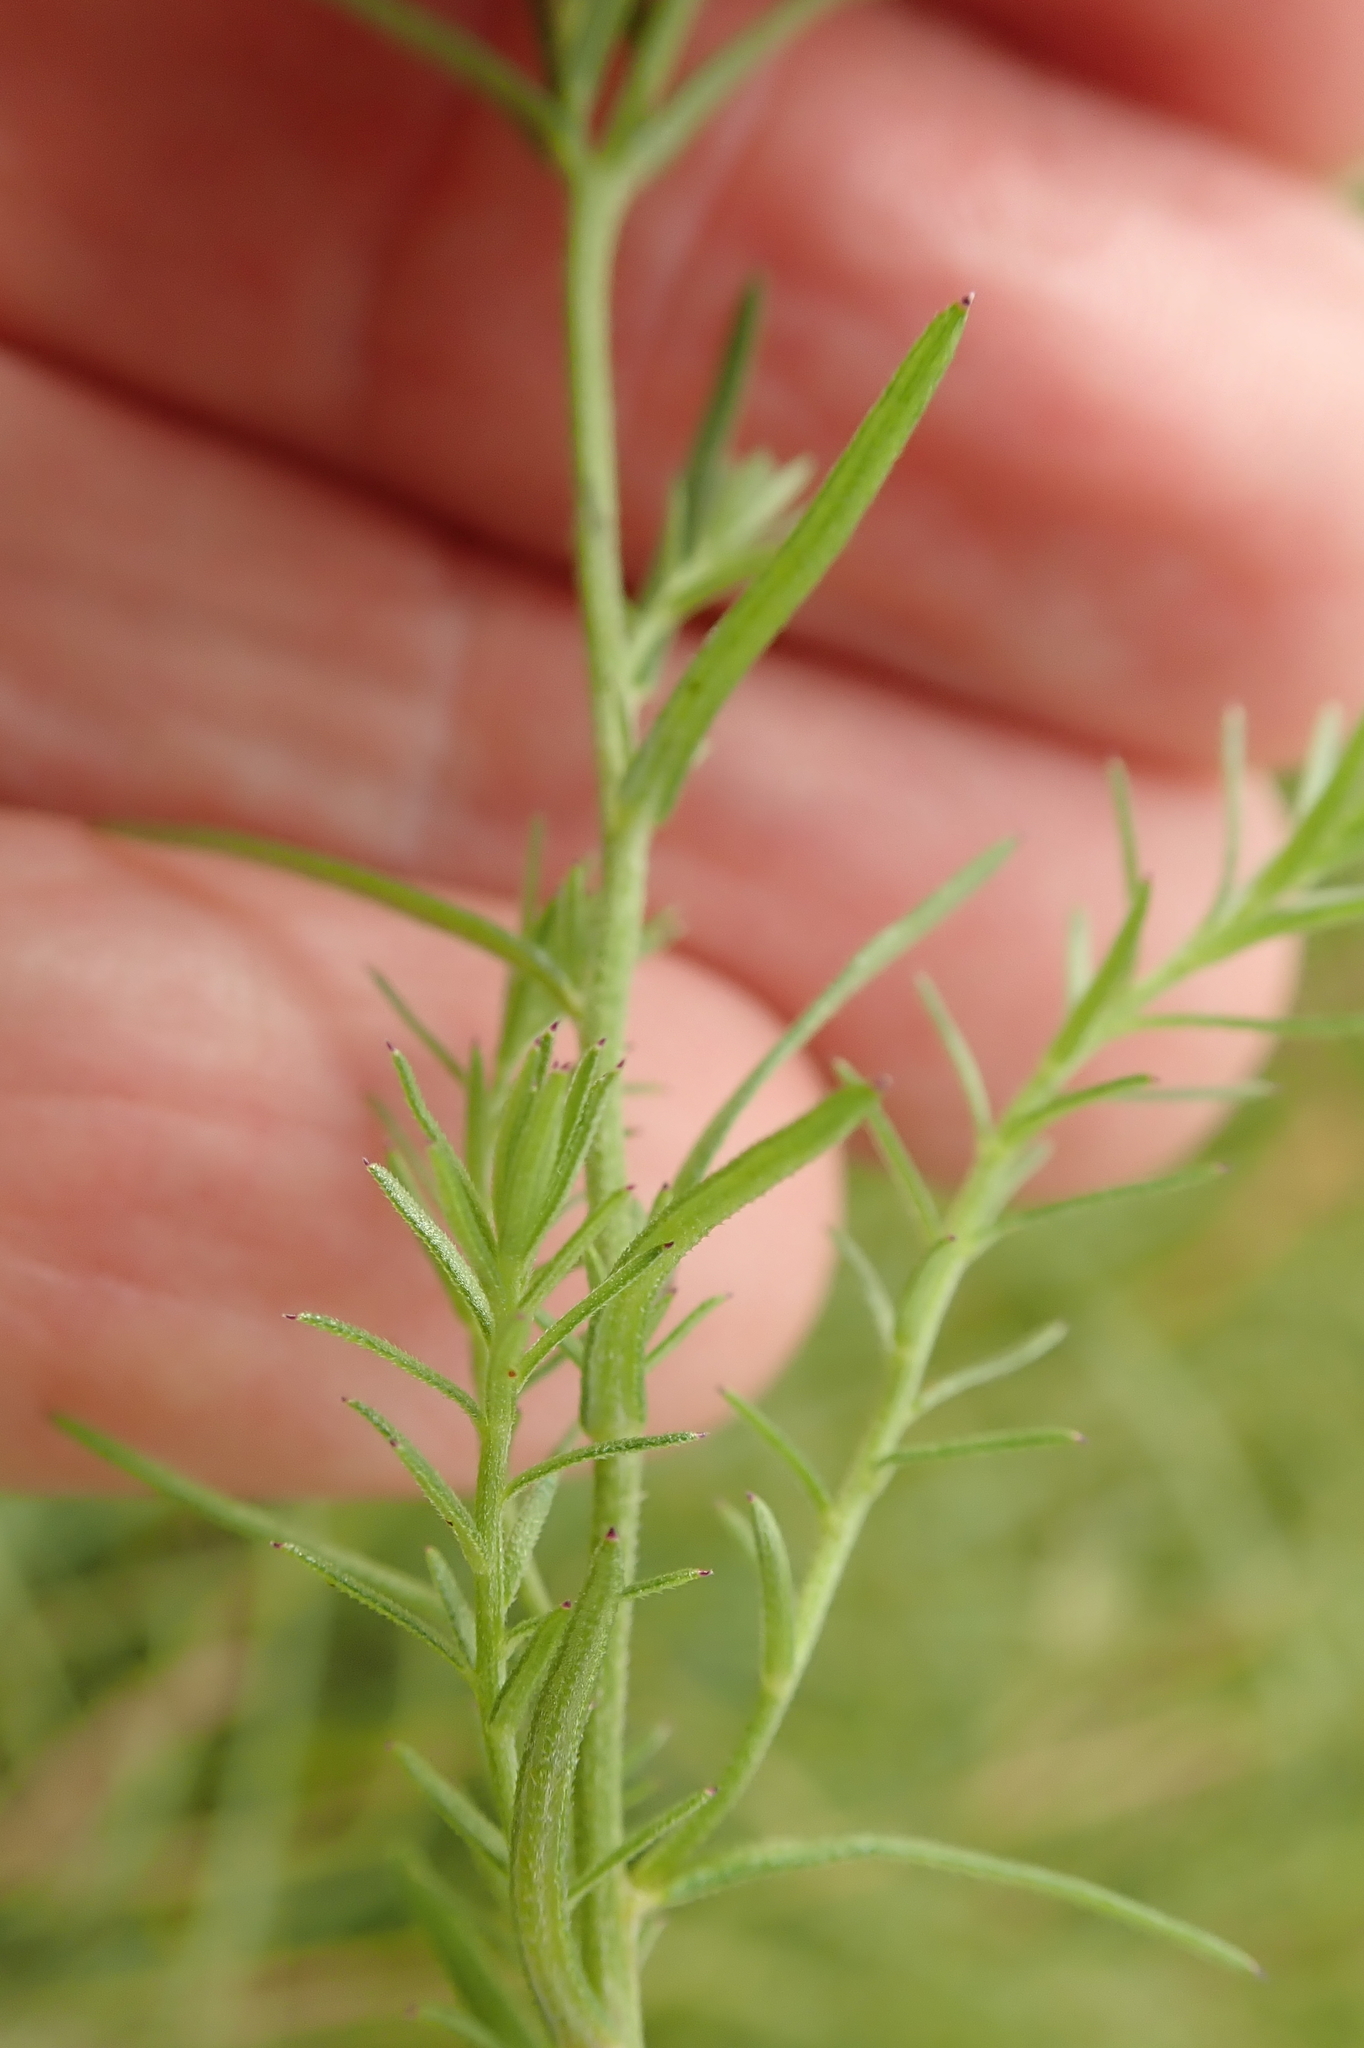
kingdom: Plantae
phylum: Tracheophyta
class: Magnoliopsida
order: Asterales
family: Campanulaceae
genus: Monopsis
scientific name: Monopsis decipiens
